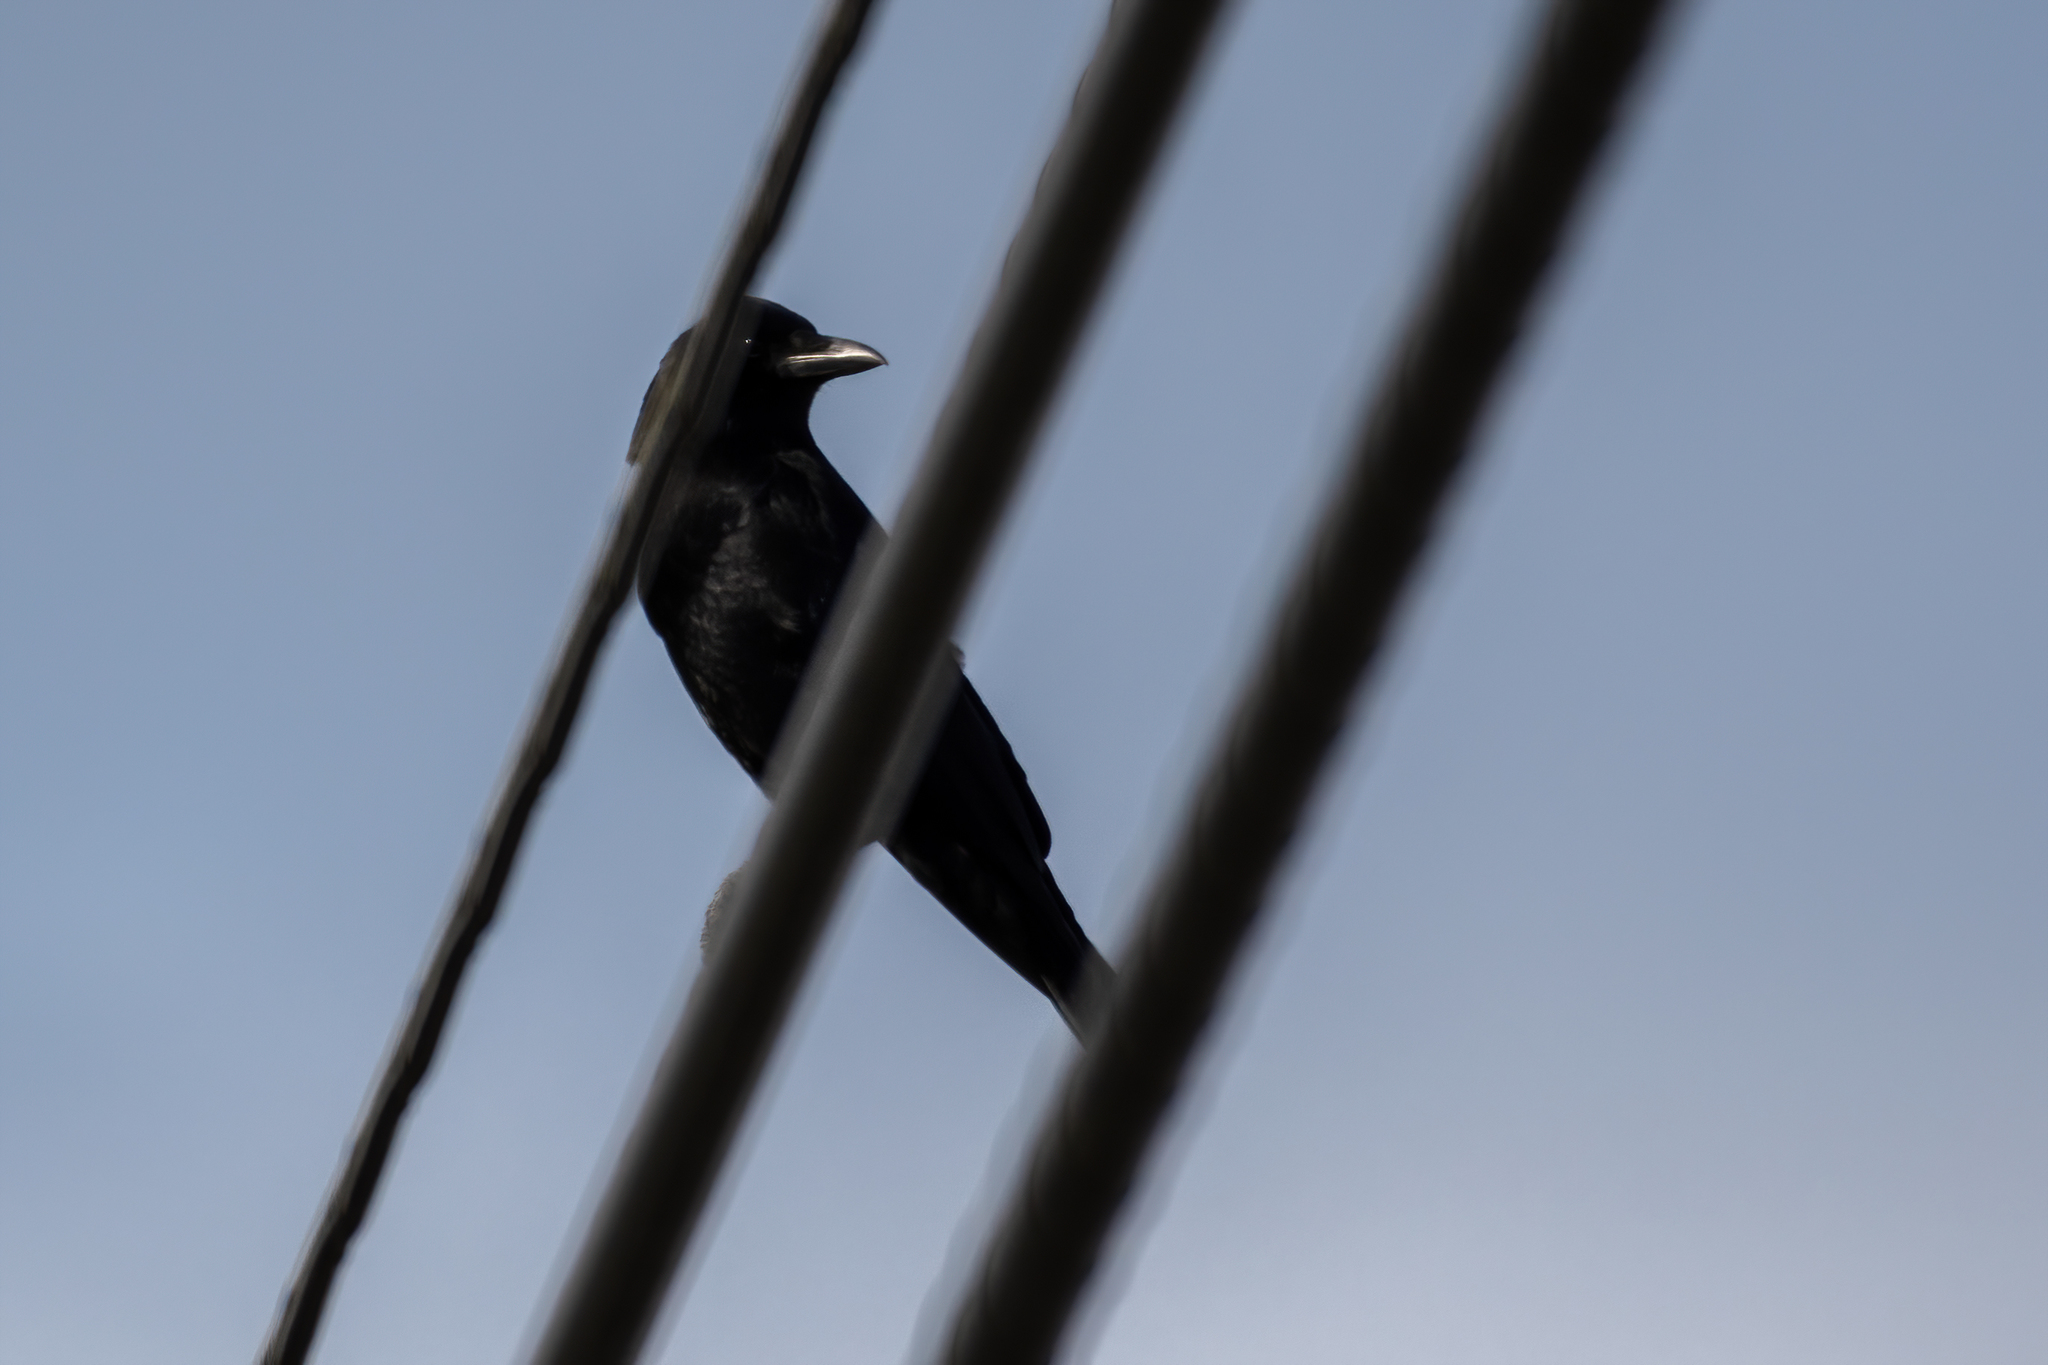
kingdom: Animalia
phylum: Chordata
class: Aves
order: Passeriformes
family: Corvidae
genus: Corvus
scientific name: Corvus brachyrhynchos
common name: American crow
